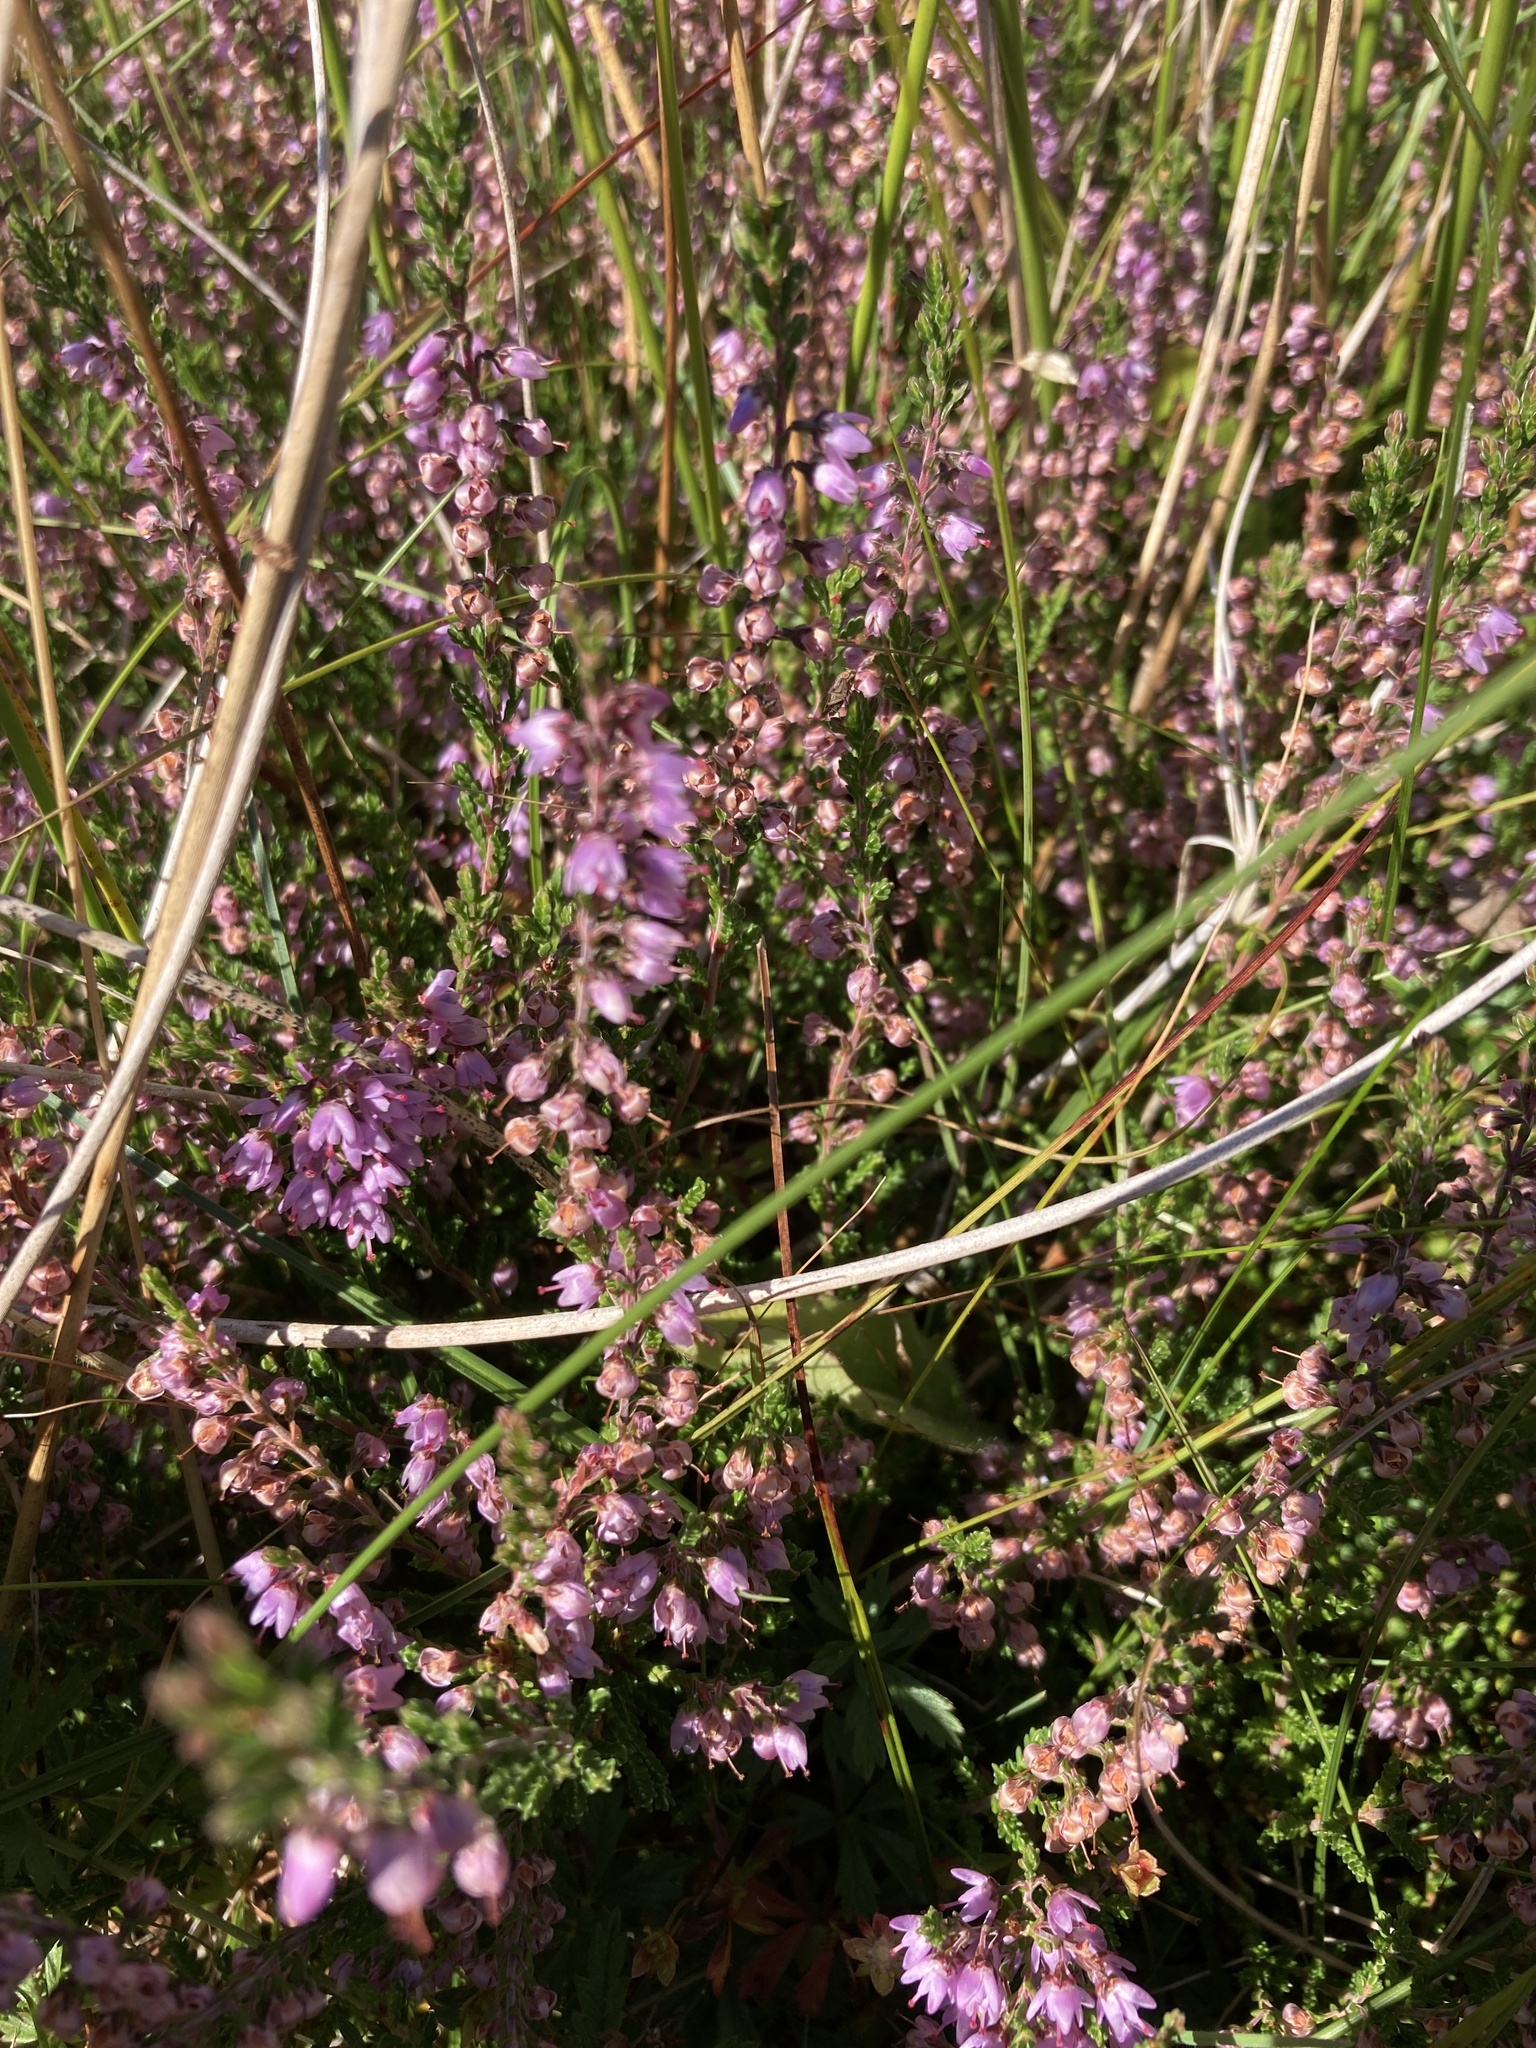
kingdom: Plantae
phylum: Tracheophyta
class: Magnoliopsida
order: Ericales
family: Ericaceae
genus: Calluna
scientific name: Calluna vulgaris
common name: Heather
